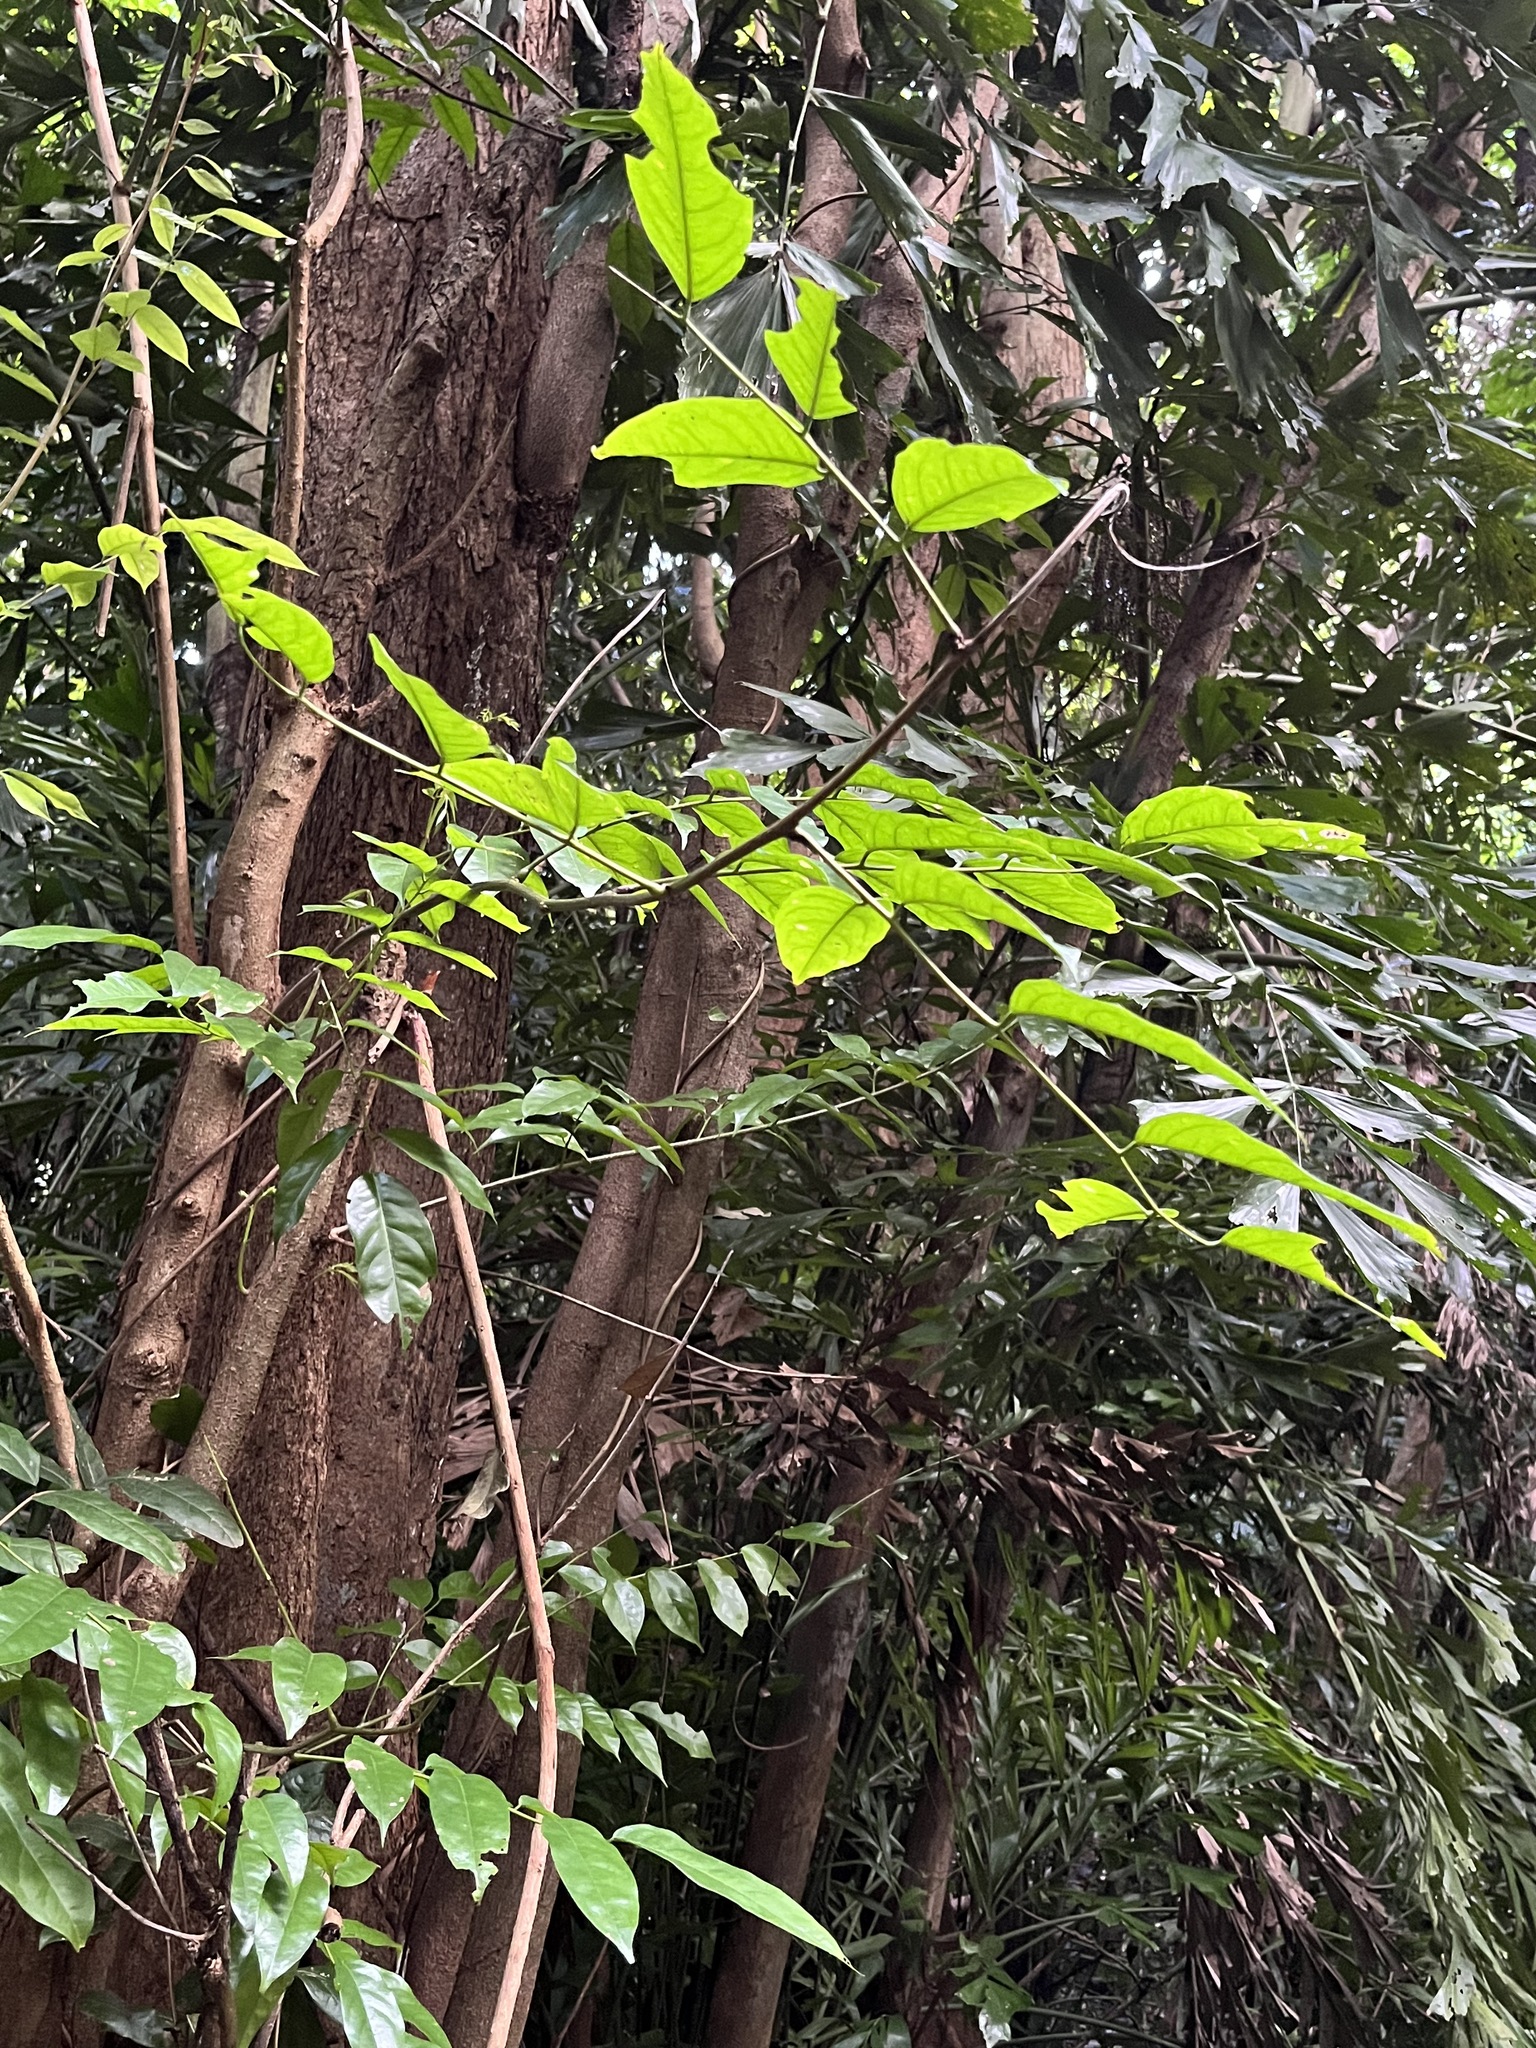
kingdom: Plantae
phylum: Tracheophyta
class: Magnoliopsida
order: Fabales
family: Fabaceae
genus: Pterocarpus
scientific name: Pterocarpus officinalis
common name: Bloodwood
